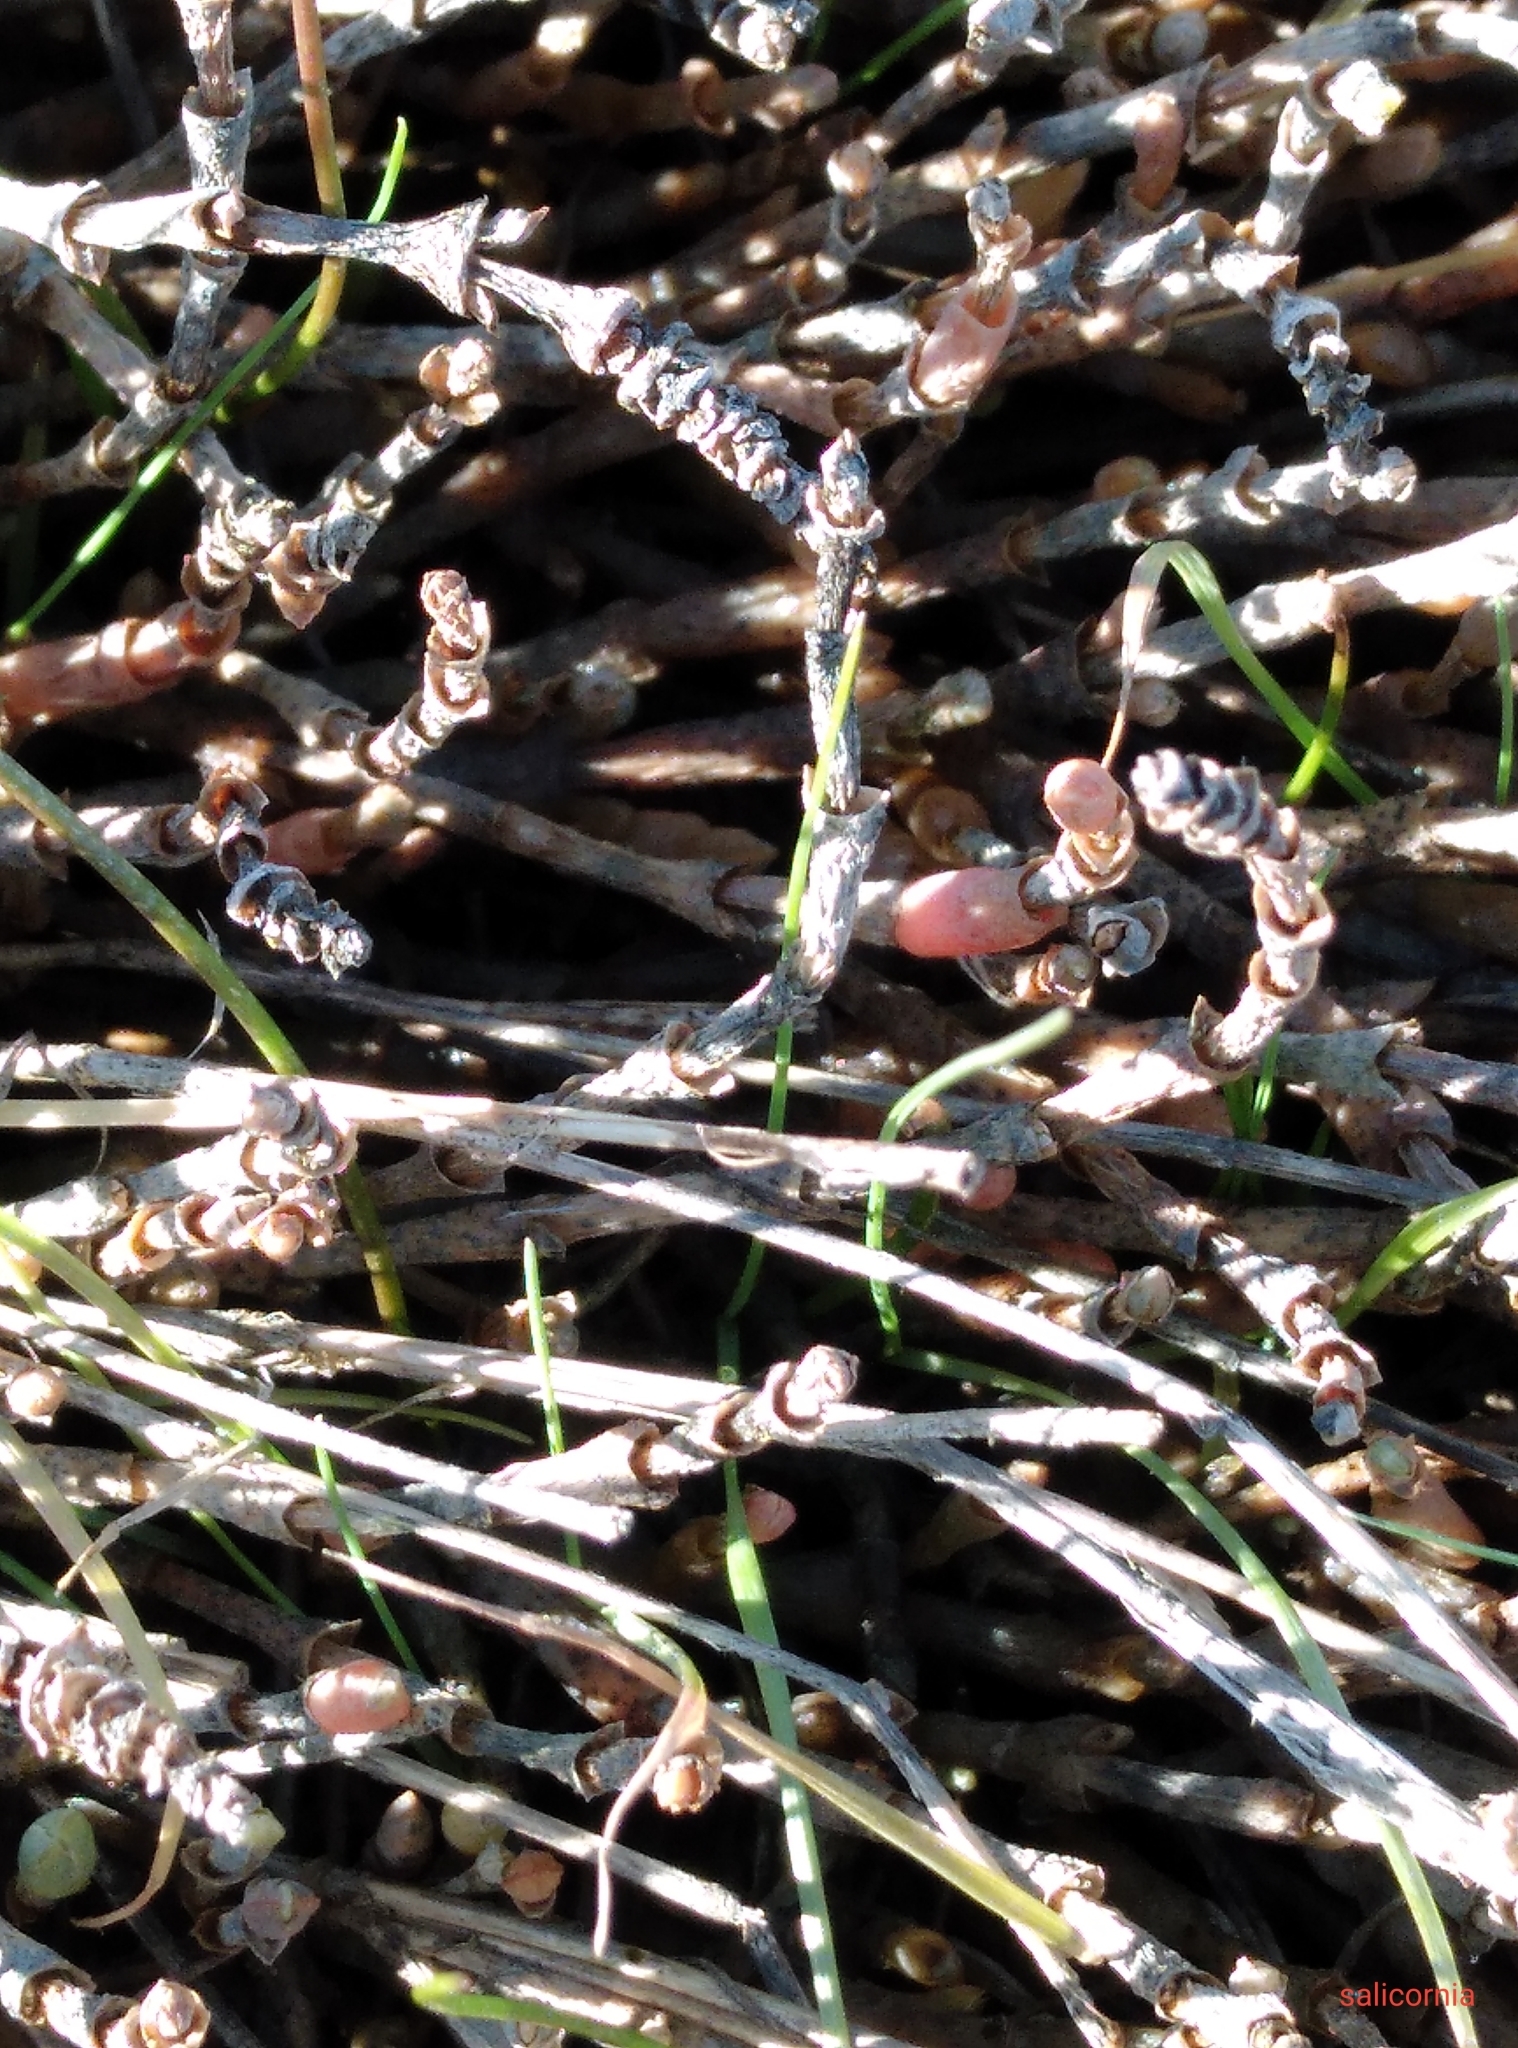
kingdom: Plantae
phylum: Tracheophyta
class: Magnoliopsida
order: Caryophyllales
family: Amaranthaceae
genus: Salicornia
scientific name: Salicornia quinqueflora
